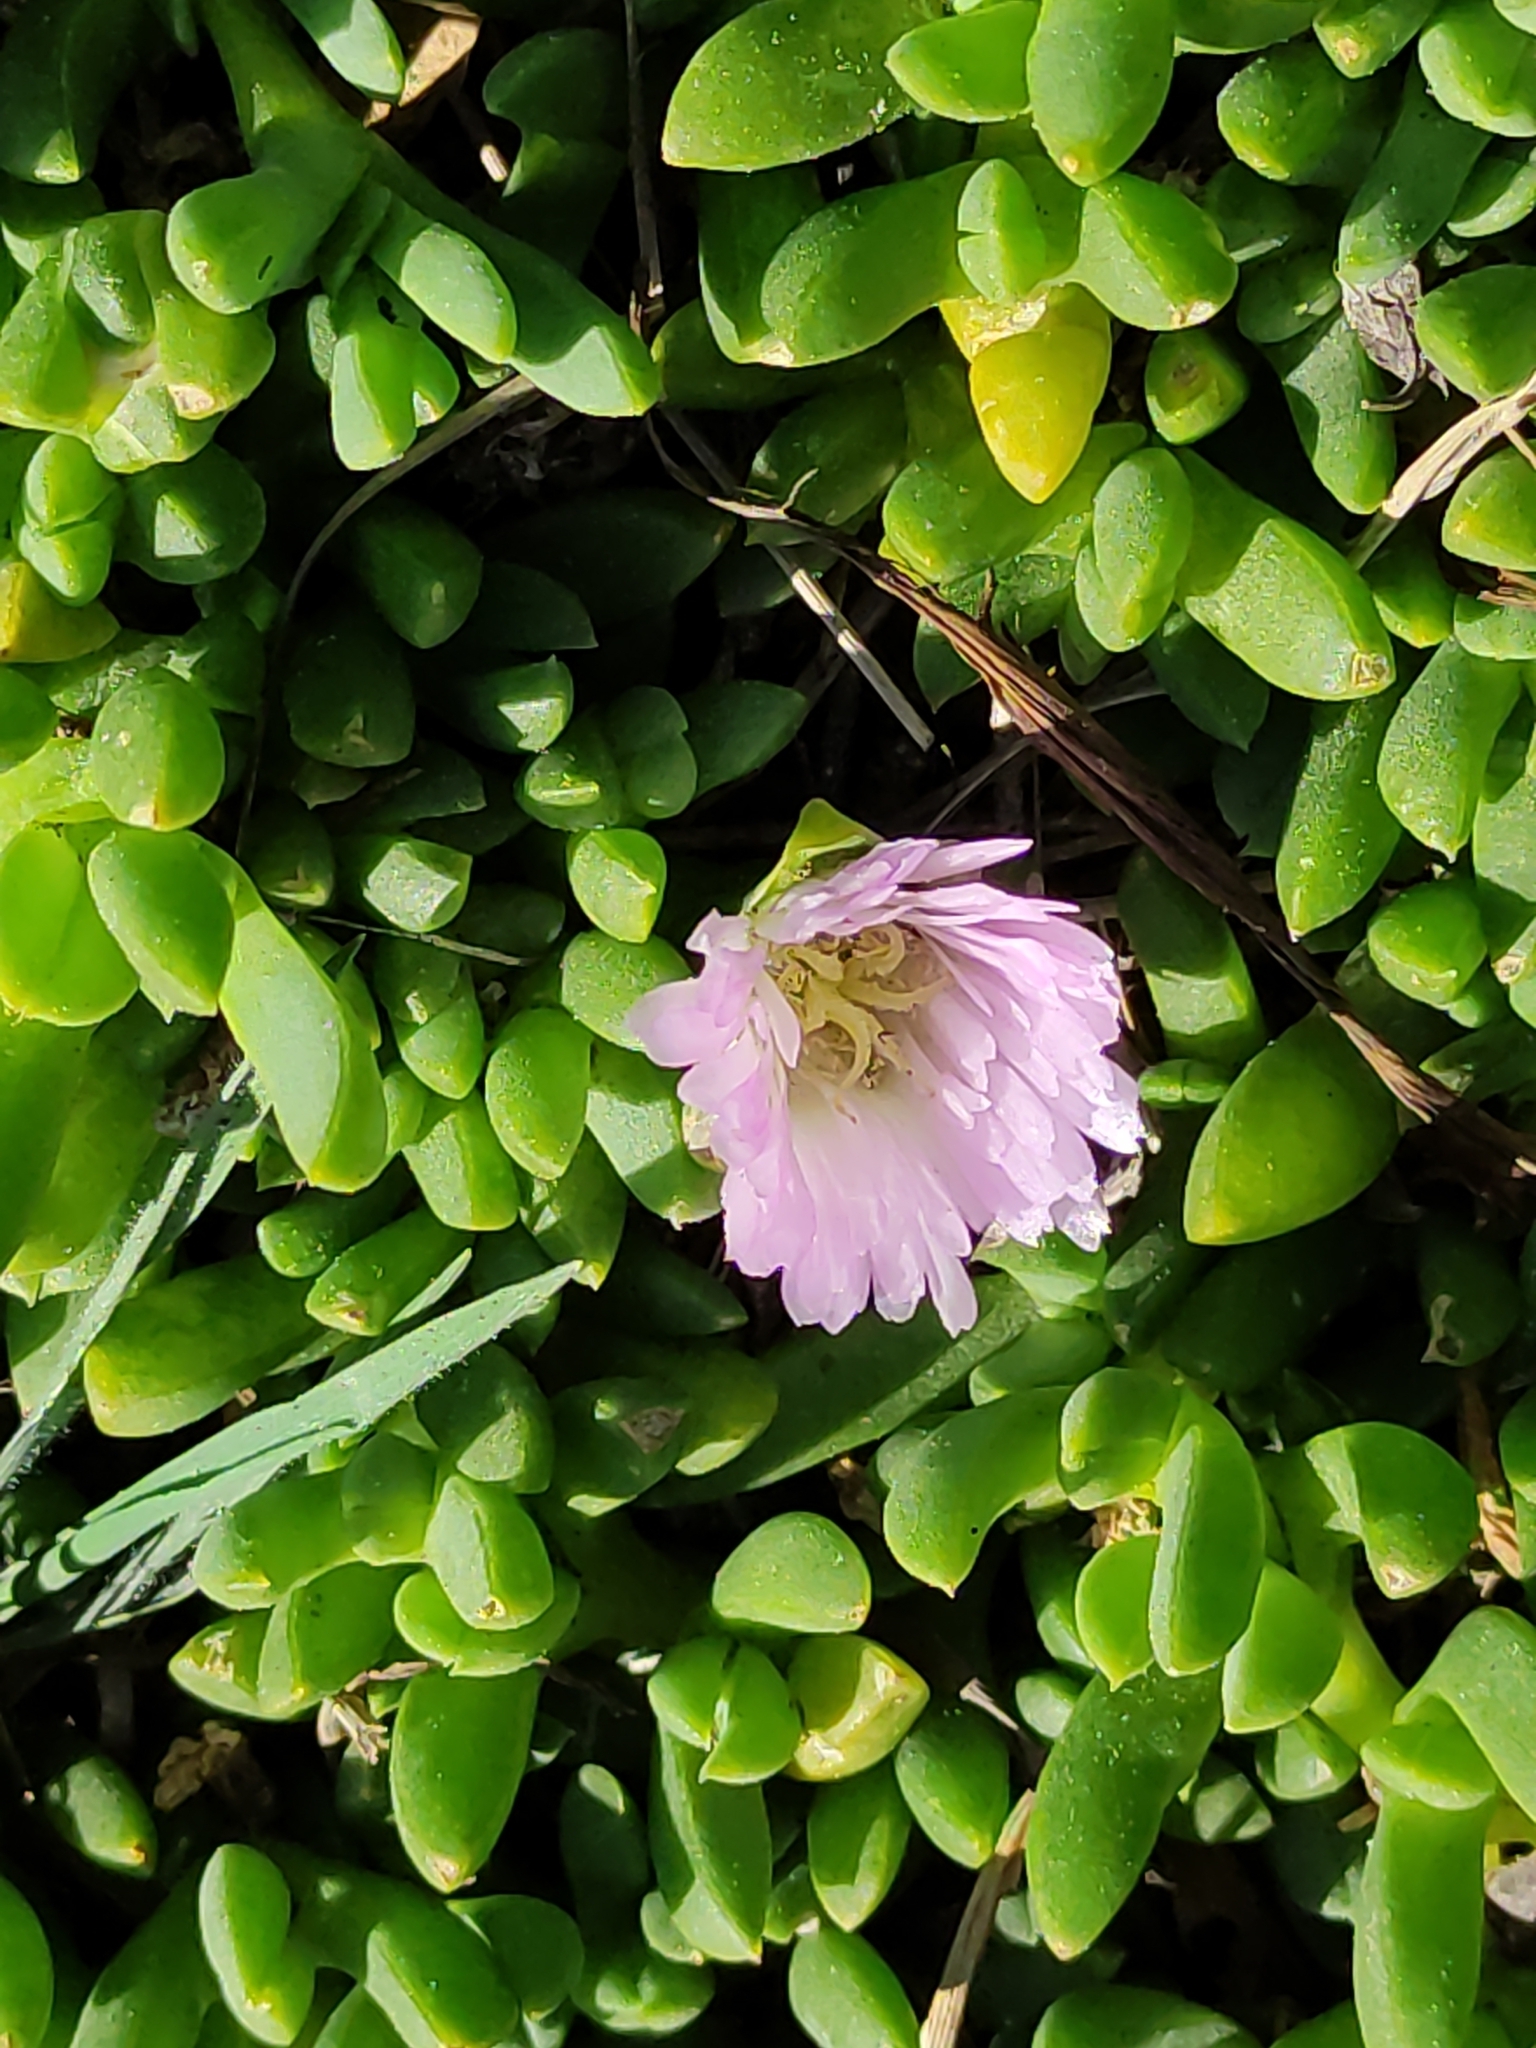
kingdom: Plantae
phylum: Tracheophyta
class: Magnoliopsida
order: Caryophyllales
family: Aizoaceae
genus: Disphyma
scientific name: Disphyma australe
